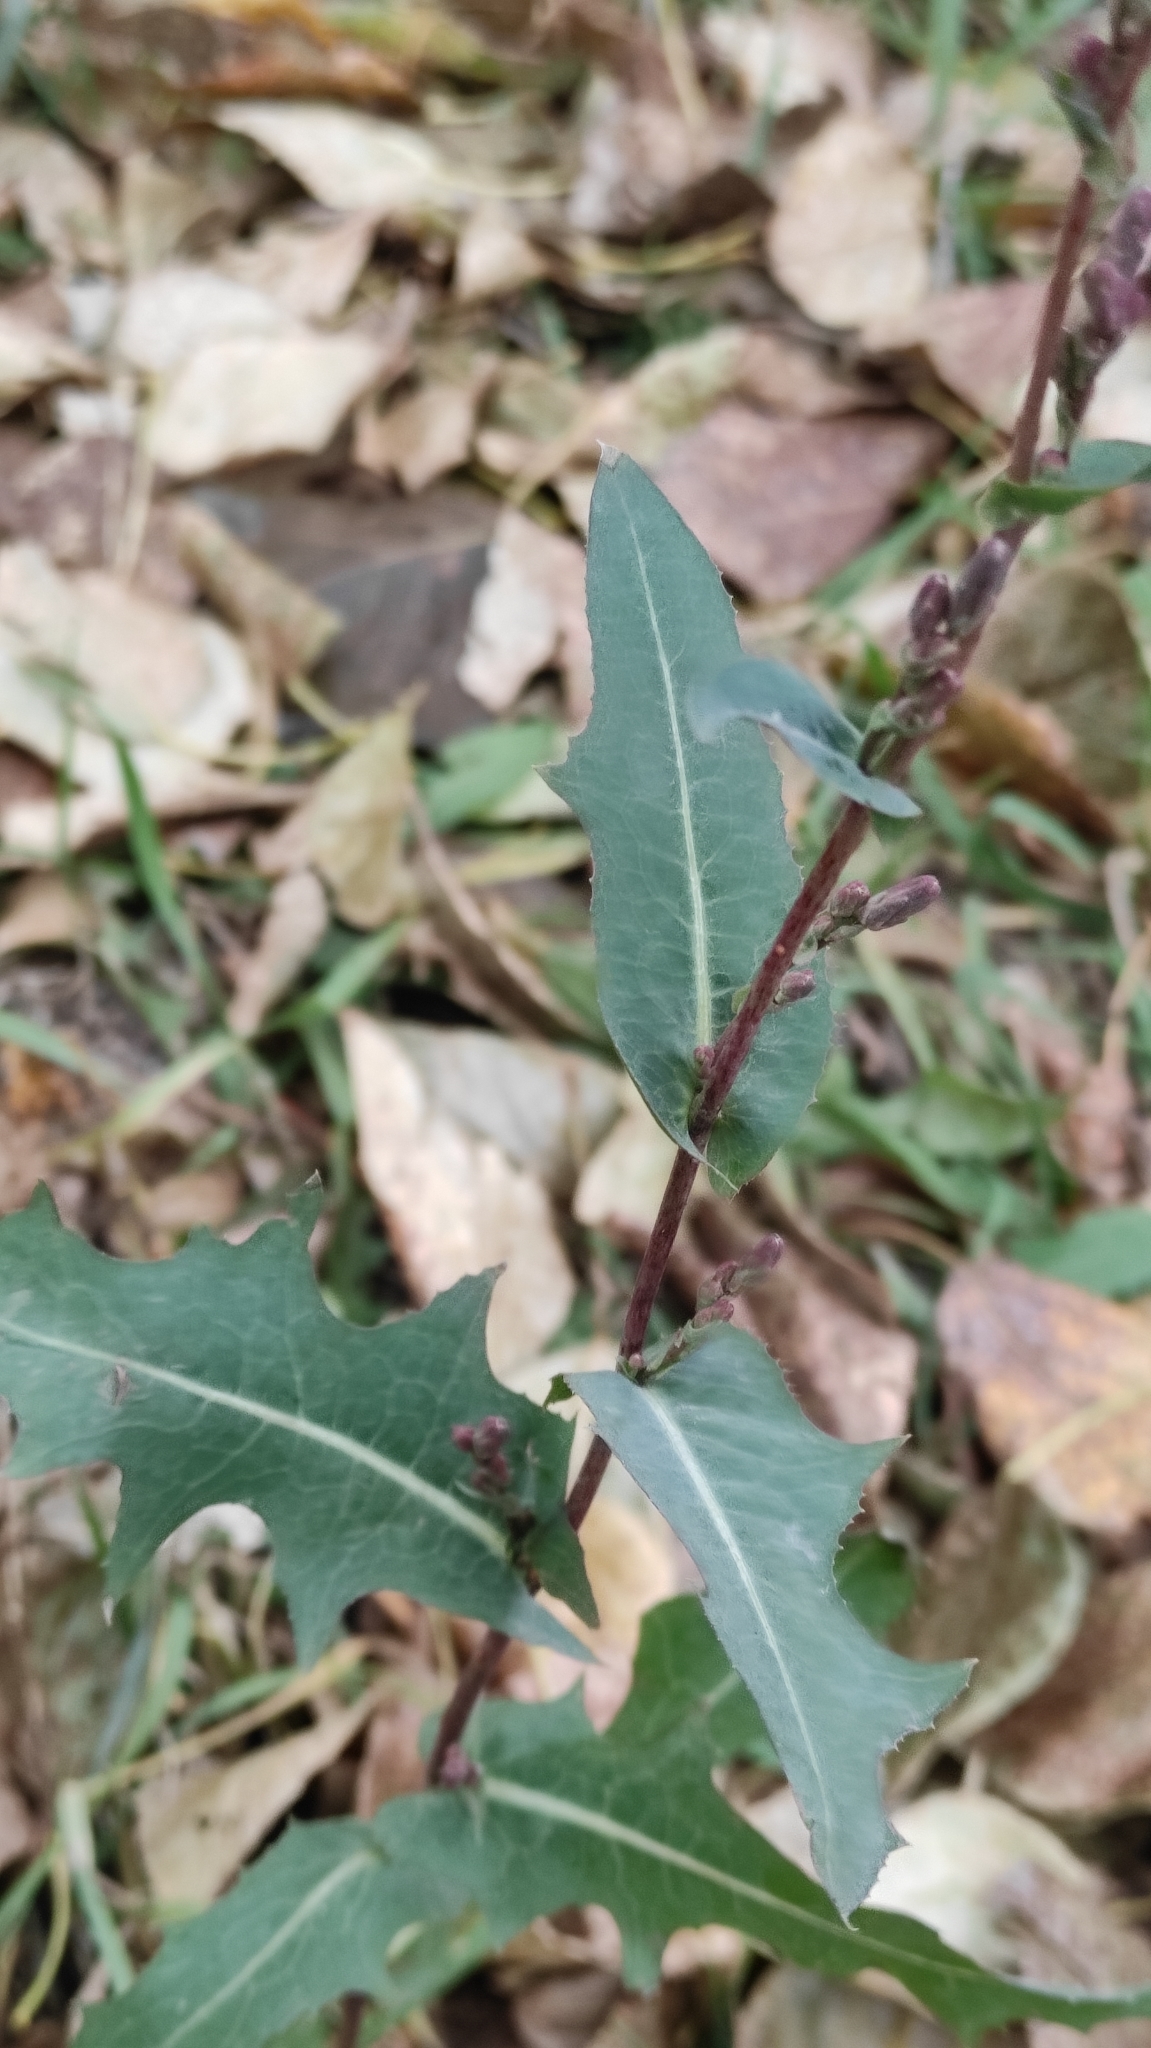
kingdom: Plantae
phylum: Tracheophyta
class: Magnoliopsida
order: Asterales
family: Asteraceae
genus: Lactuca
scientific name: Lactuca serriola
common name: Prickly lettuce
